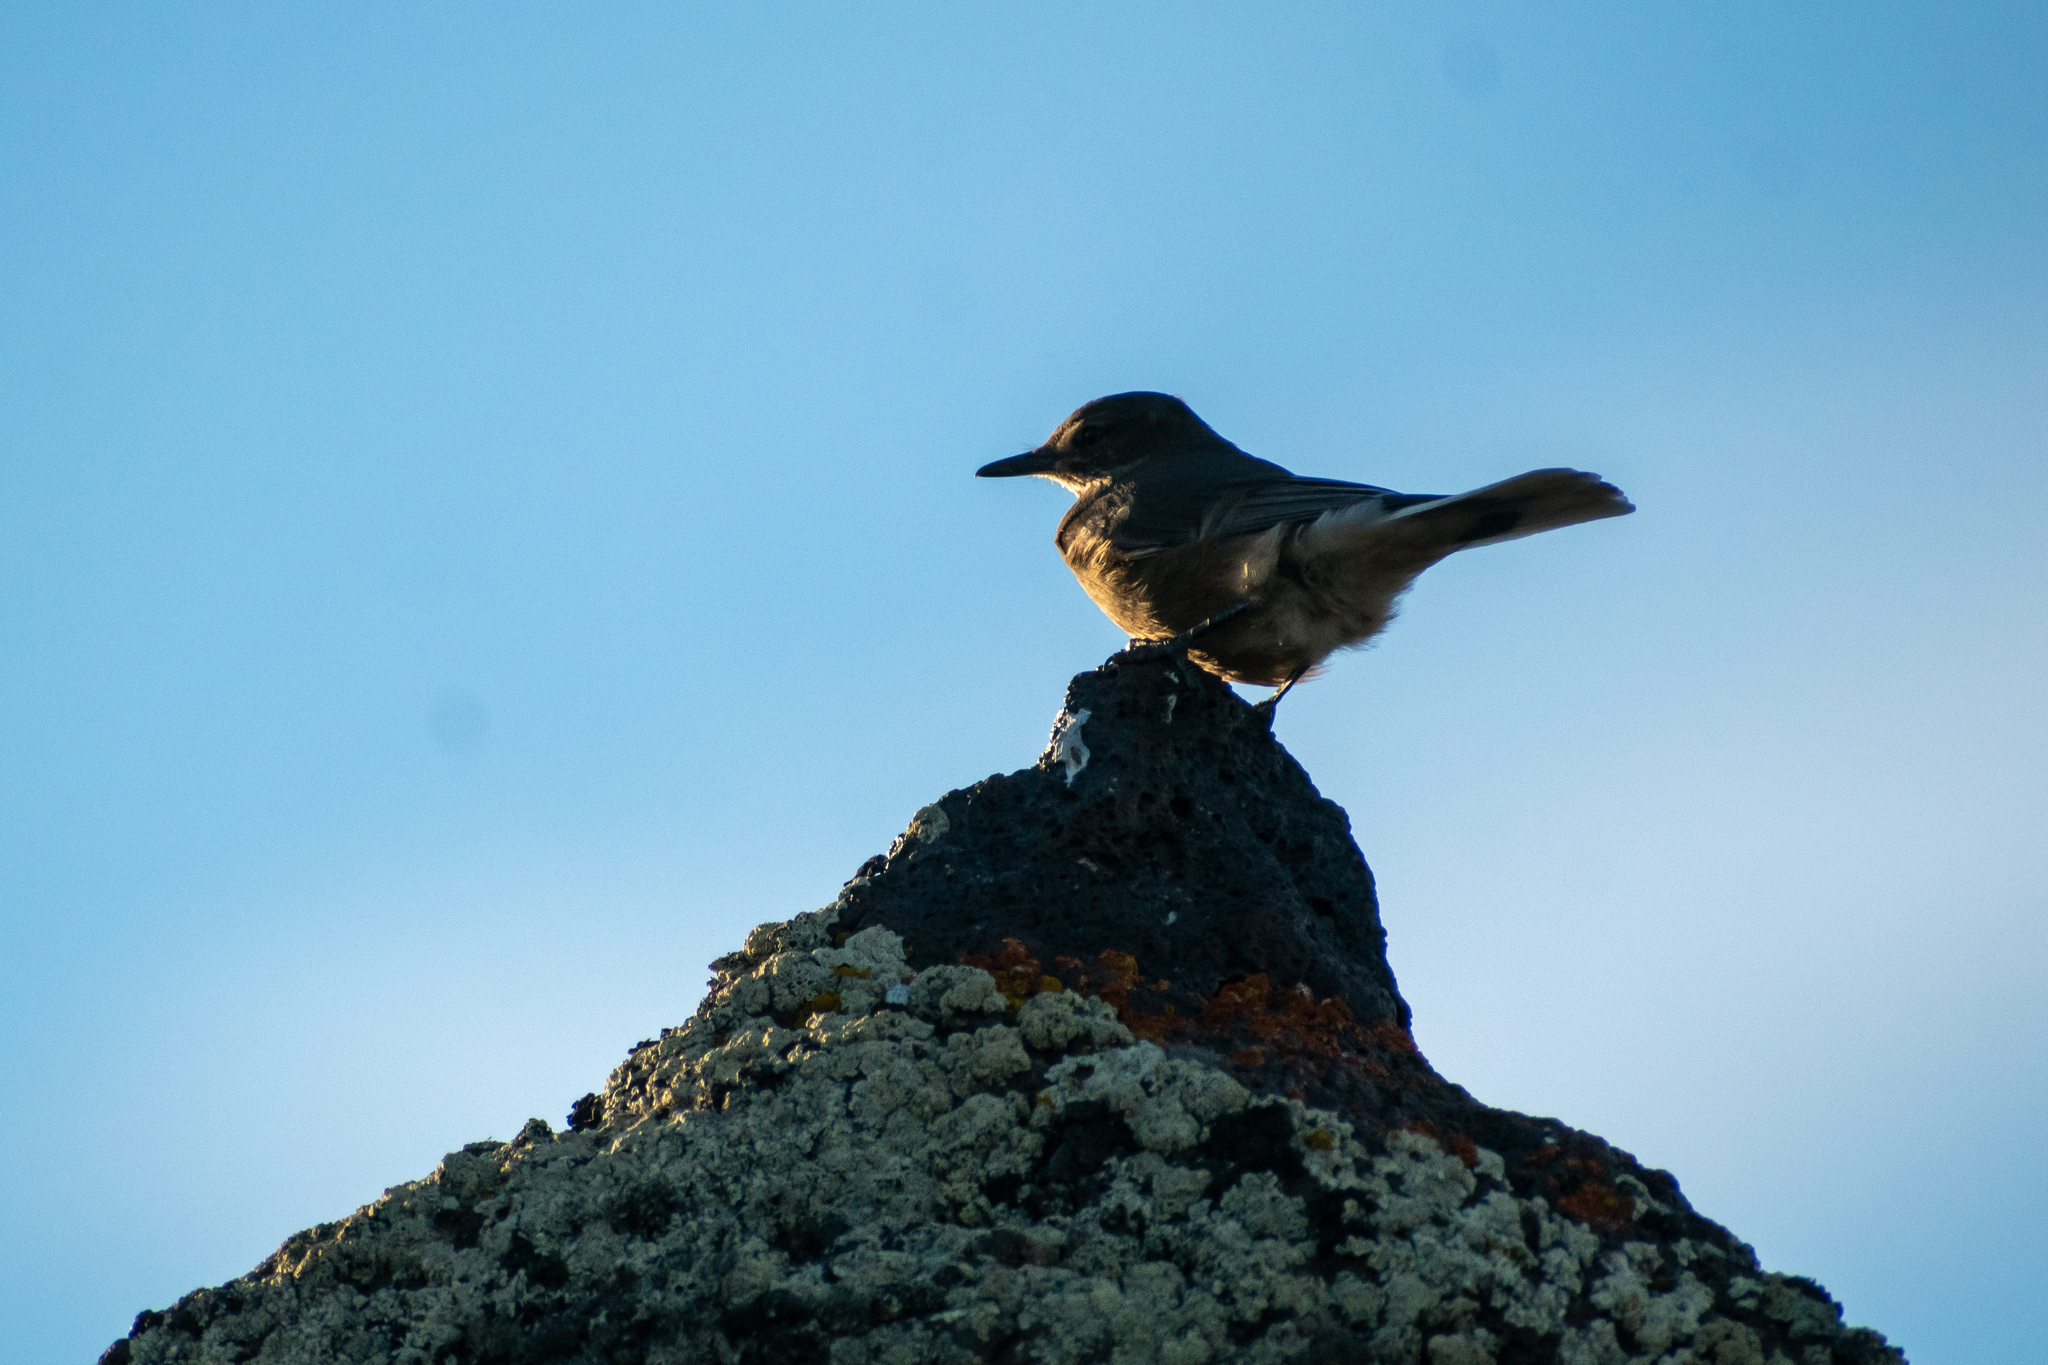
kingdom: Animalia
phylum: Chordata
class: Aves
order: Passeriformes
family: Tyrannidae
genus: Agriornis
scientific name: Agriornis montanus
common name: Black-billed shrike-tyrant
